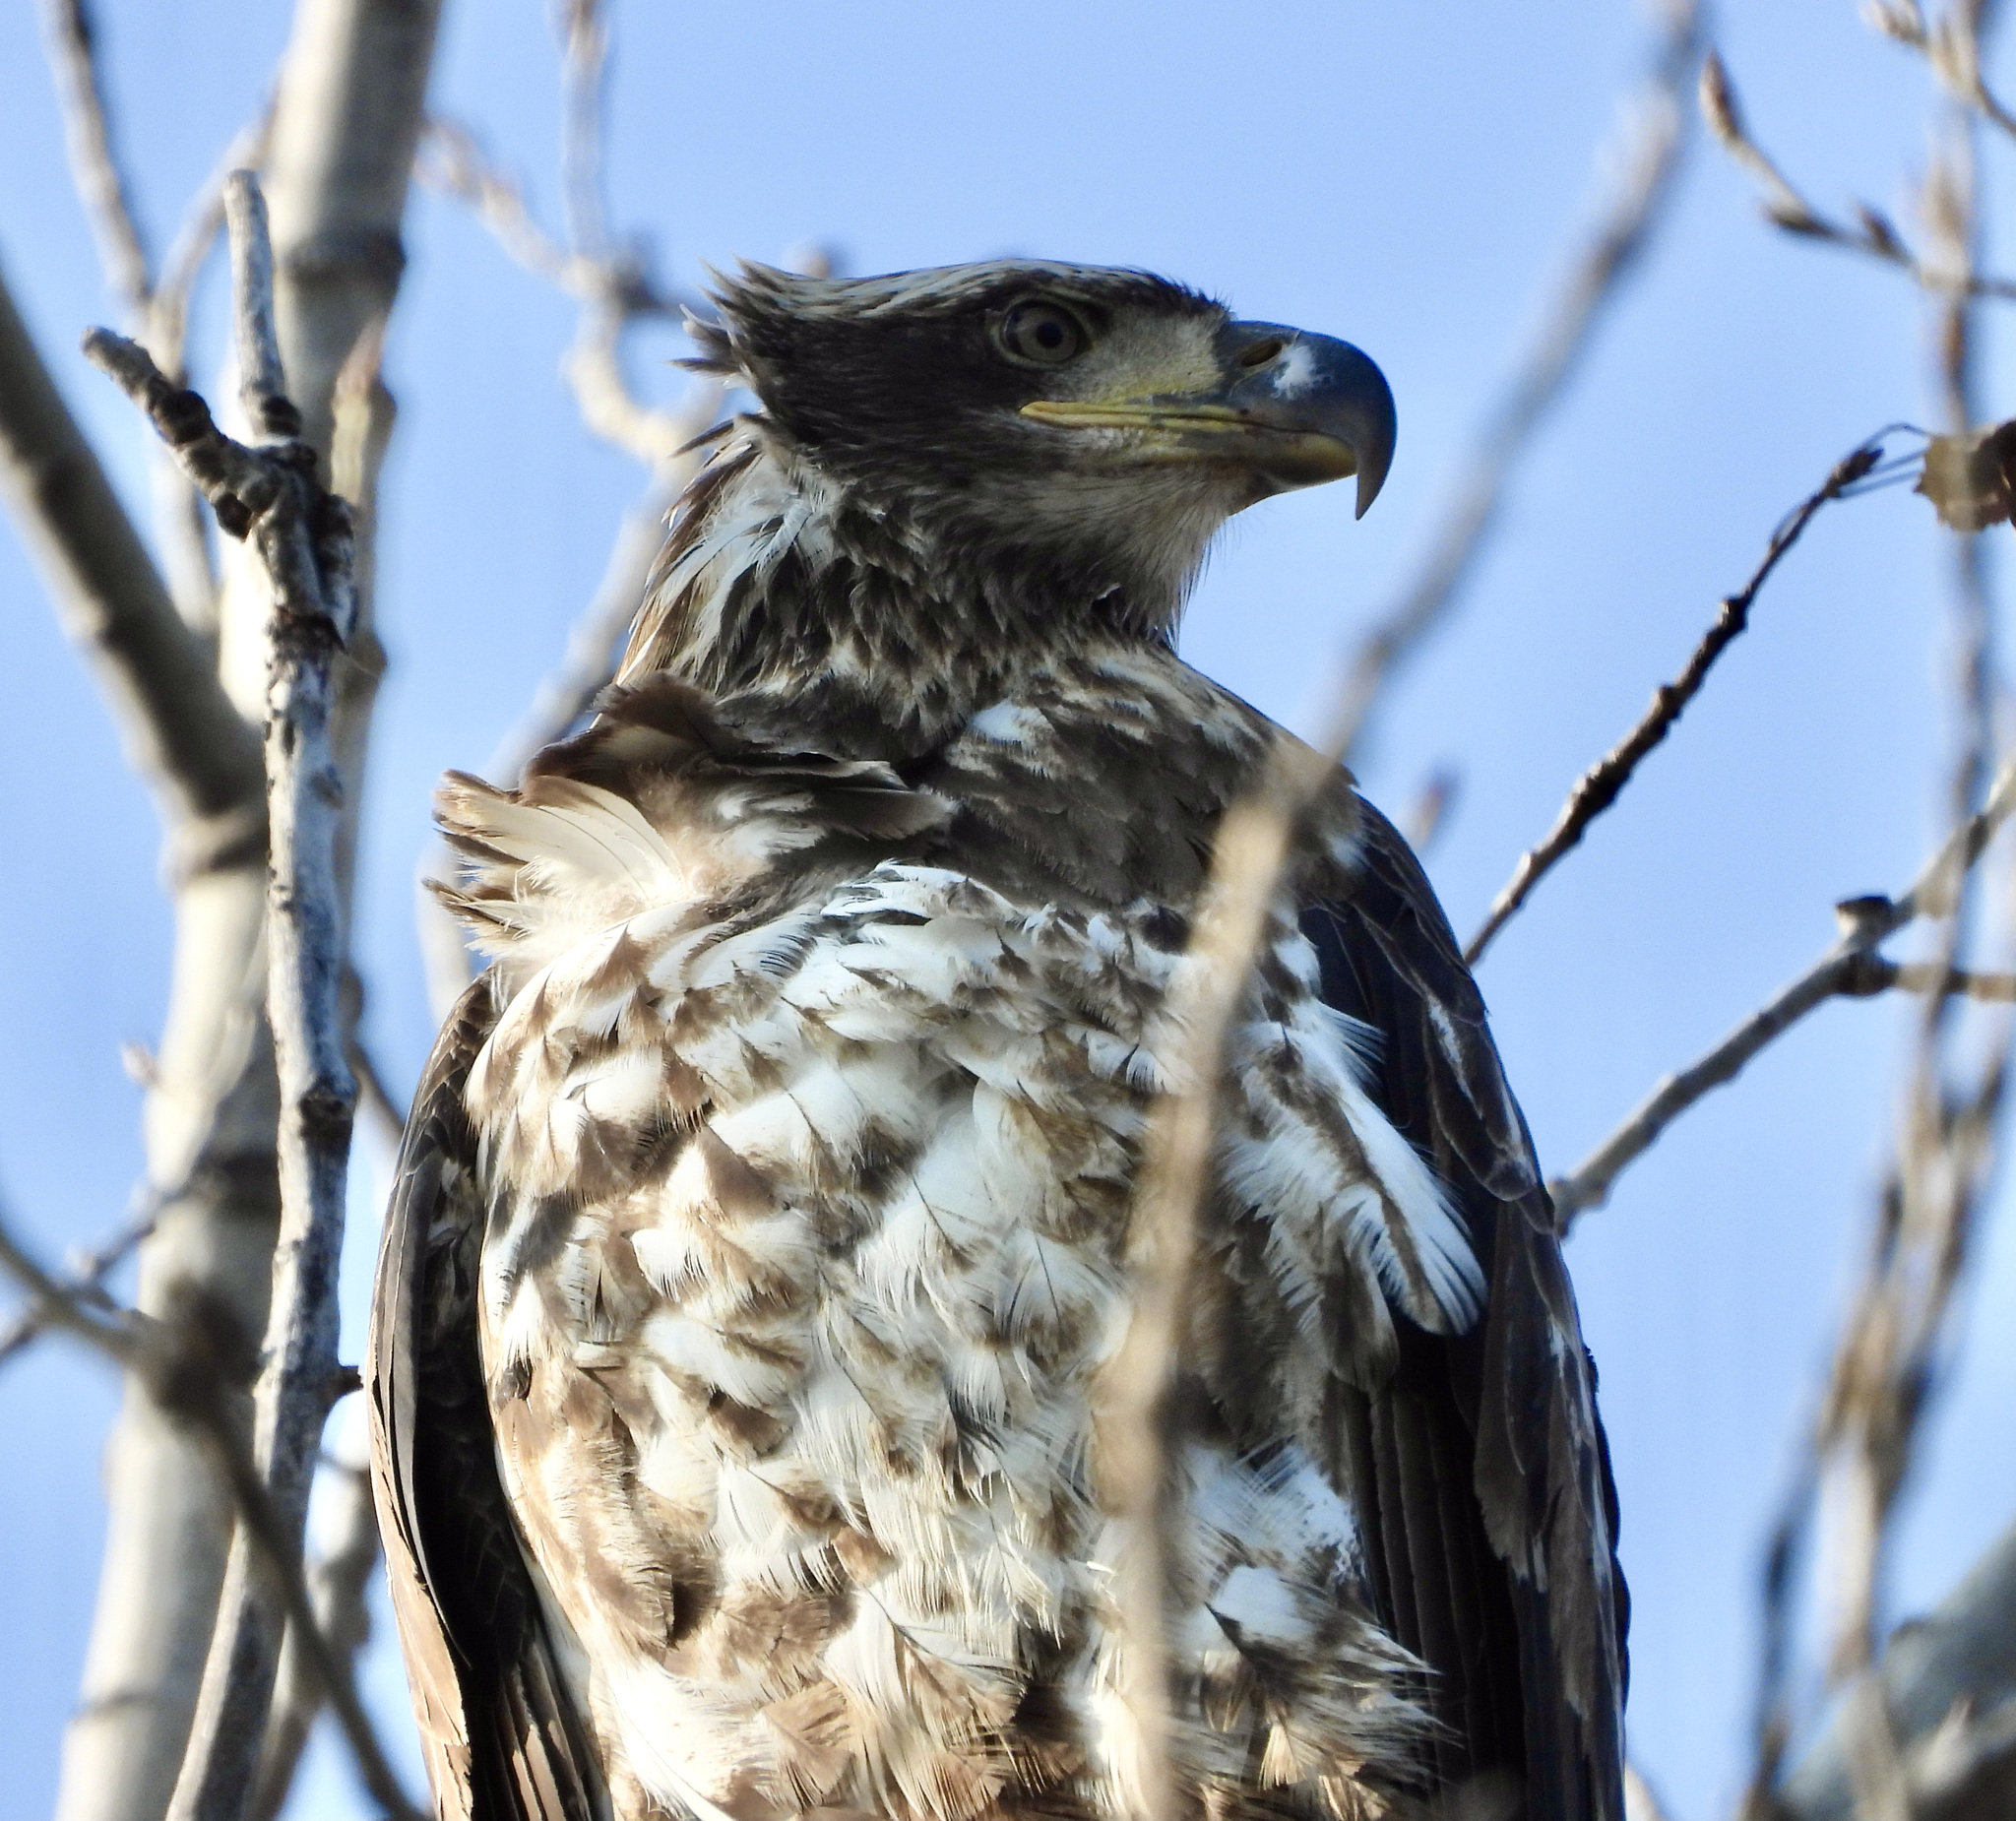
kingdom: Animalia
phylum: Chordata
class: Aves
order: Accipitriformes
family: Accipitridae
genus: Haliaeetus
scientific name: Haliaeetus leucocephalus
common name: Bald eagle
